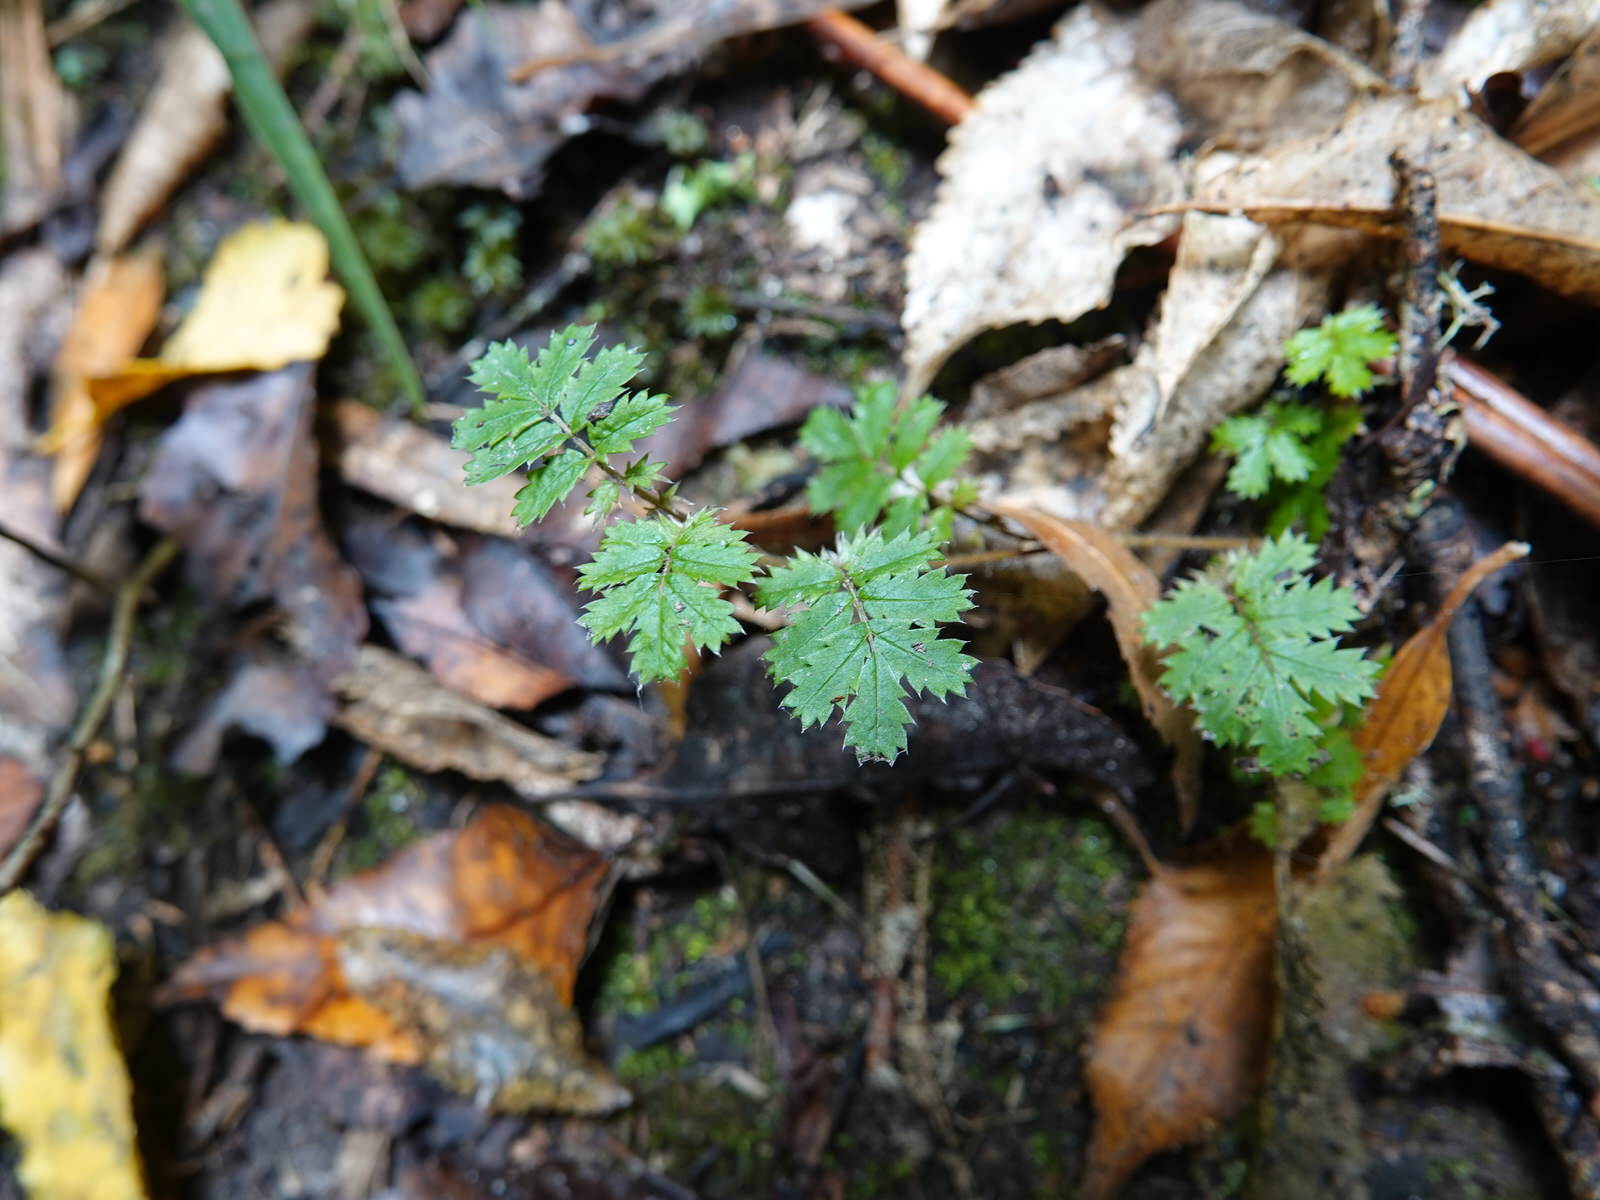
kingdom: Plantae
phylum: Tracheophyta
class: Magnoliopsida
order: Rosales
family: Rosaceae
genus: Acaena
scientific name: Acaena anserinifolia
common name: Bronze pirri-pirri-bur
